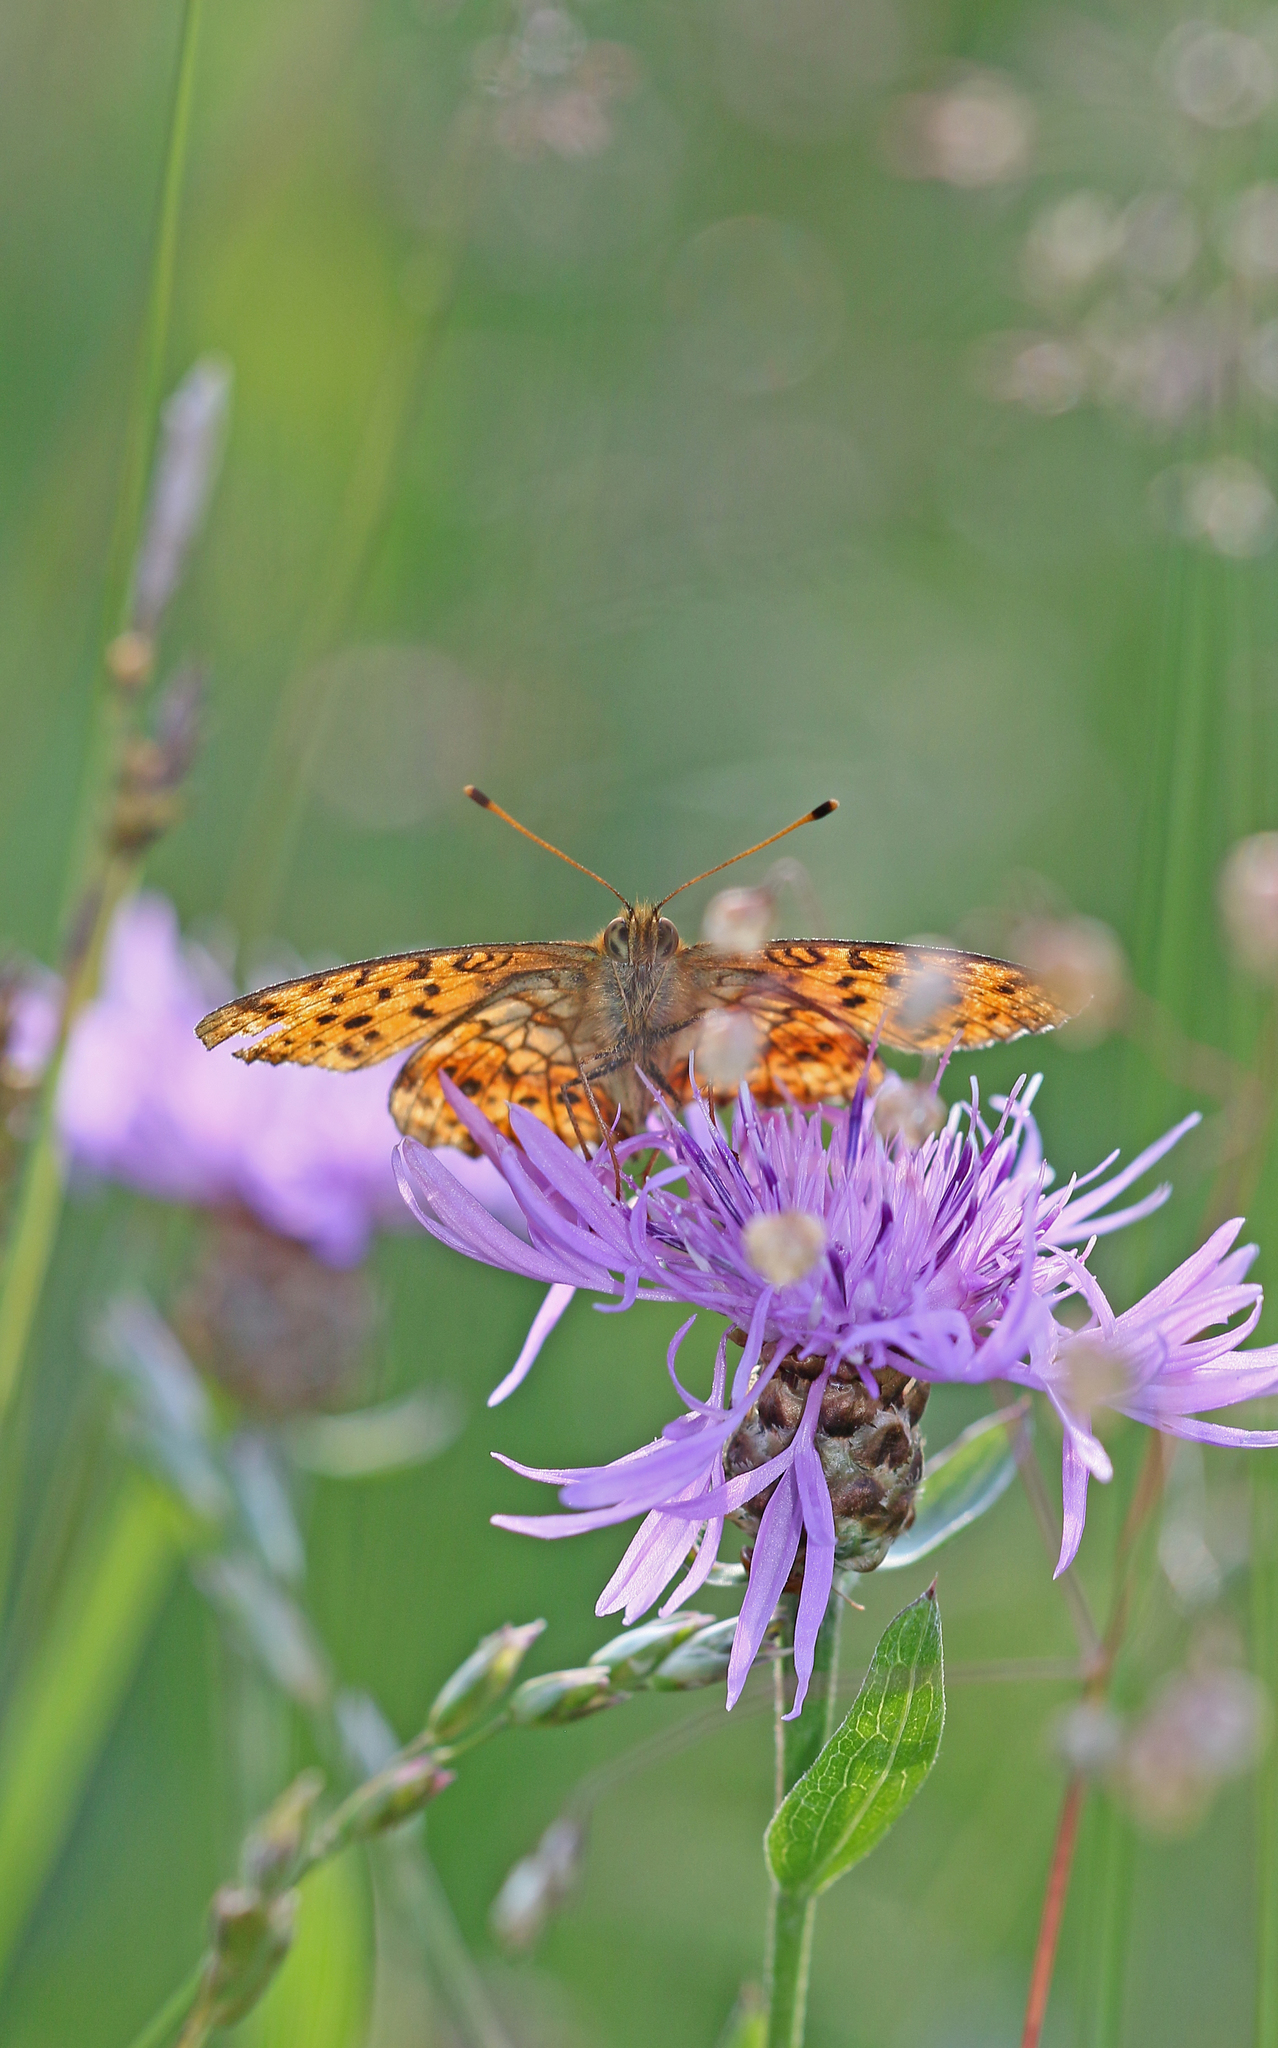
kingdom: Animalia
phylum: Arthropoda
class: Insecta
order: Lepidoptera
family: Nymphalidae
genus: Brenthis
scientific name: Brenthis ino
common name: Lesser marbled fritillary
